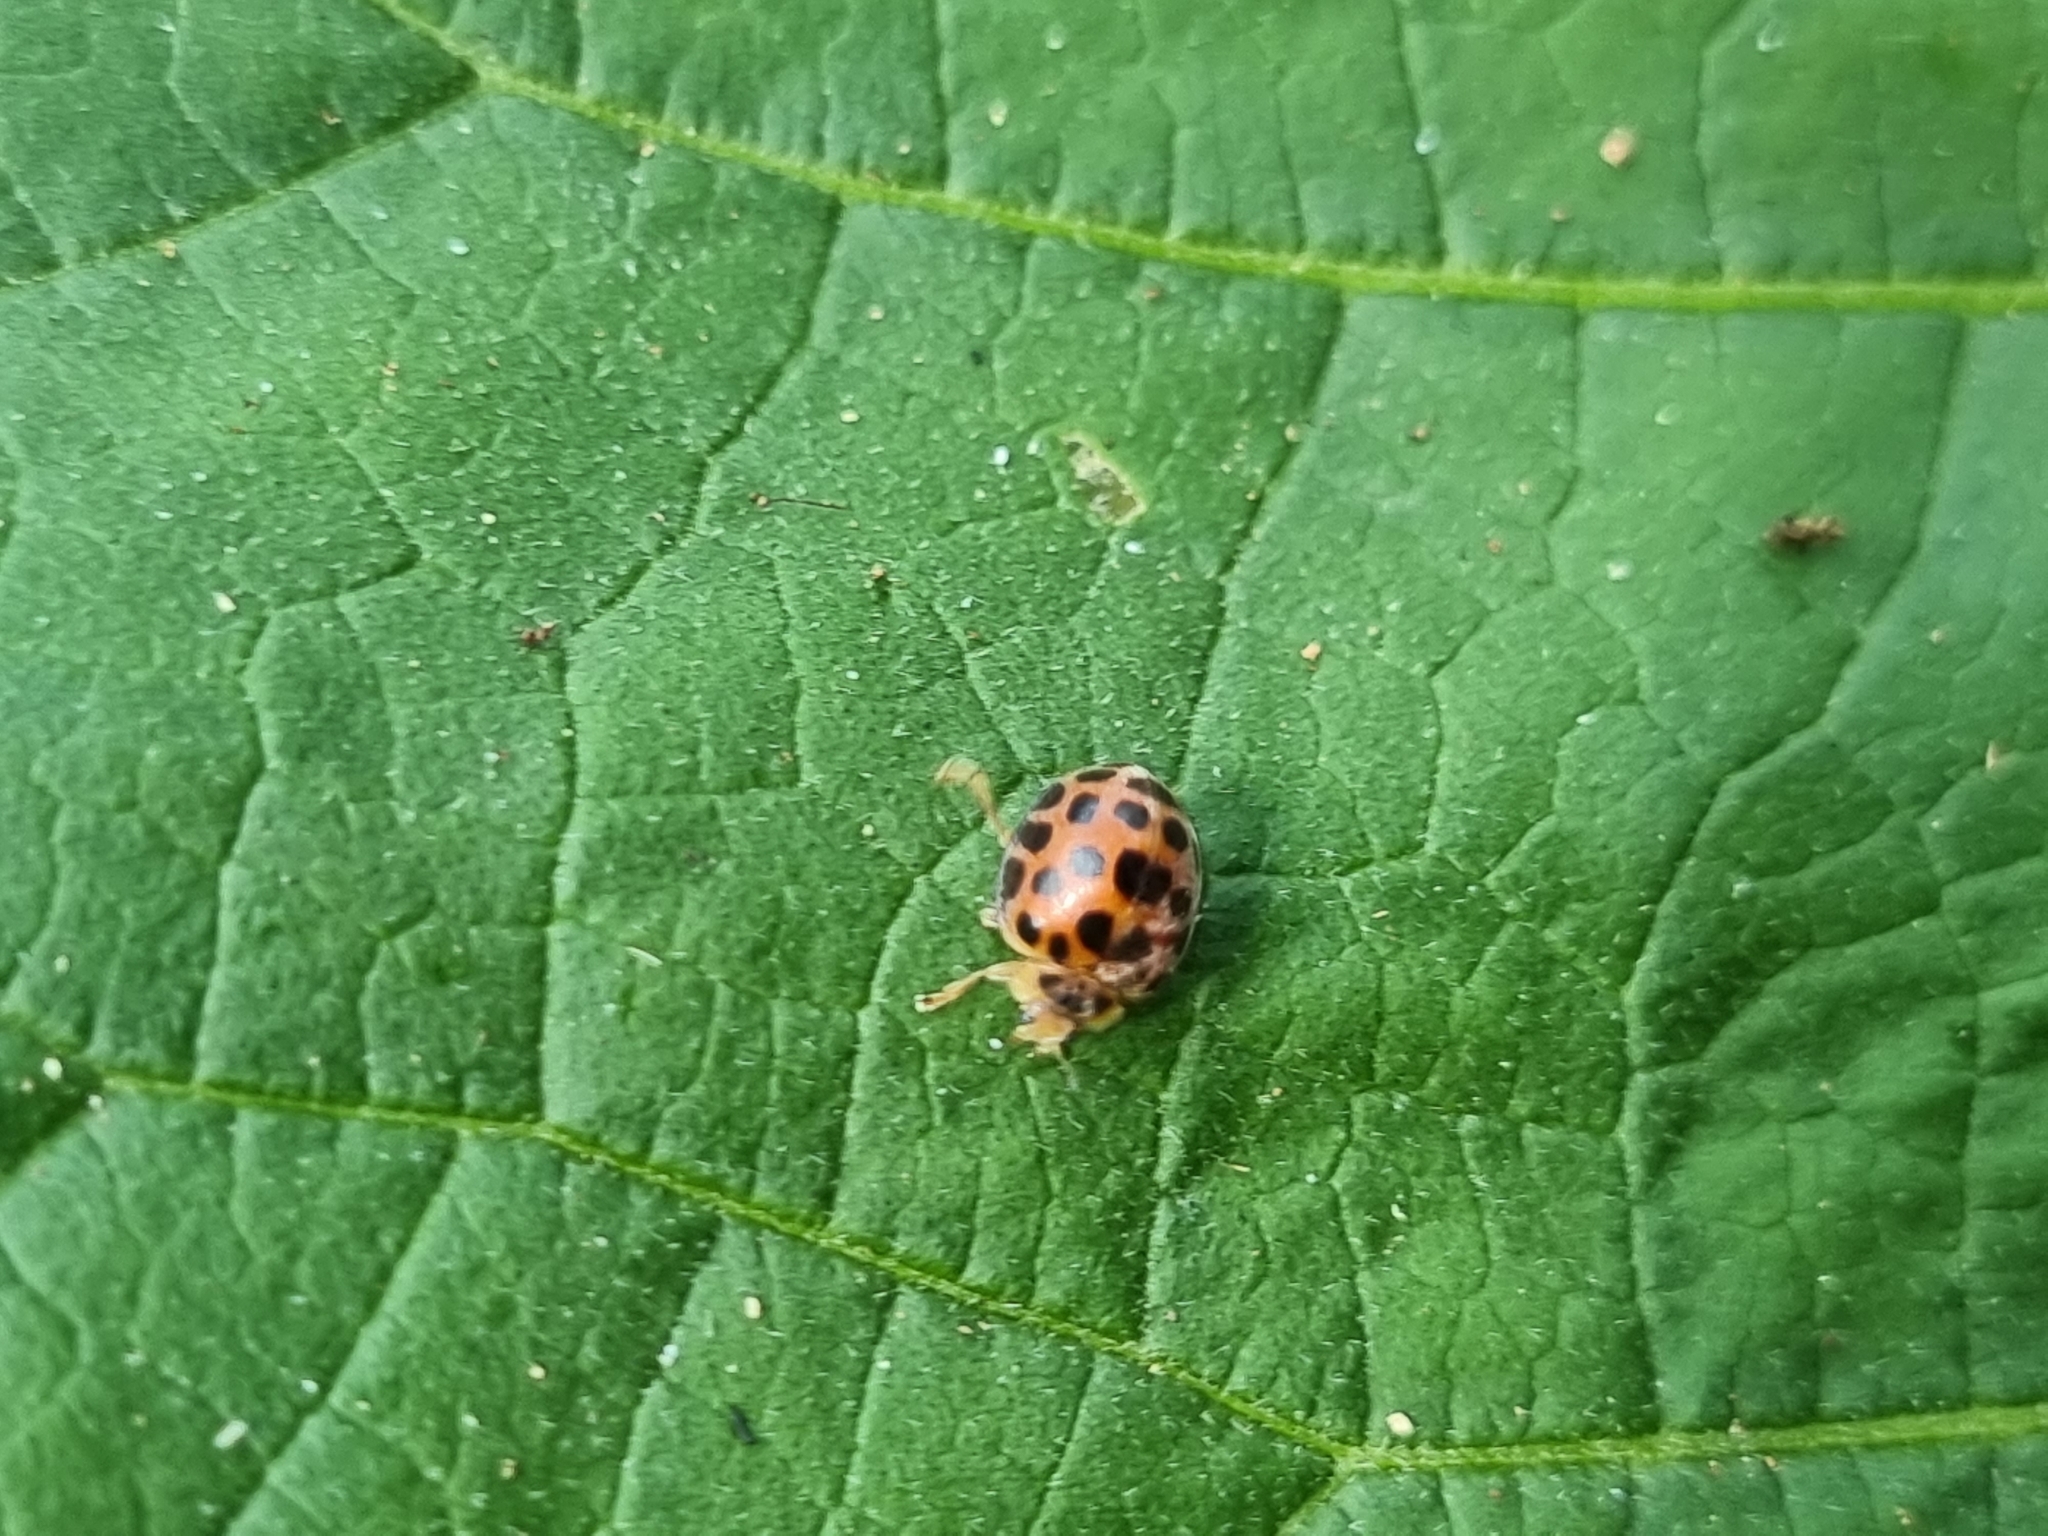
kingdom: Animalia
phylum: Arthropoda
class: Insecta
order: Coleoptera
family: Coccinellidae
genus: Henosepilachna
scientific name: Henosepilachna vigintisexpunctata
